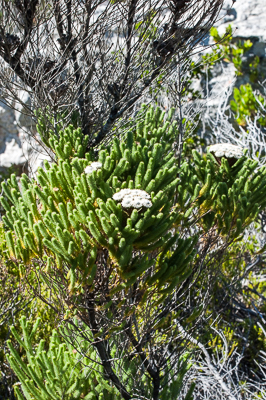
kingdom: Plantae
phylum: Tracheophyta
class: Magnoliopsida
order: Bruniales
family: Bruniaceae
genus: Berzelia
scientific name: Berzelia albiflora
